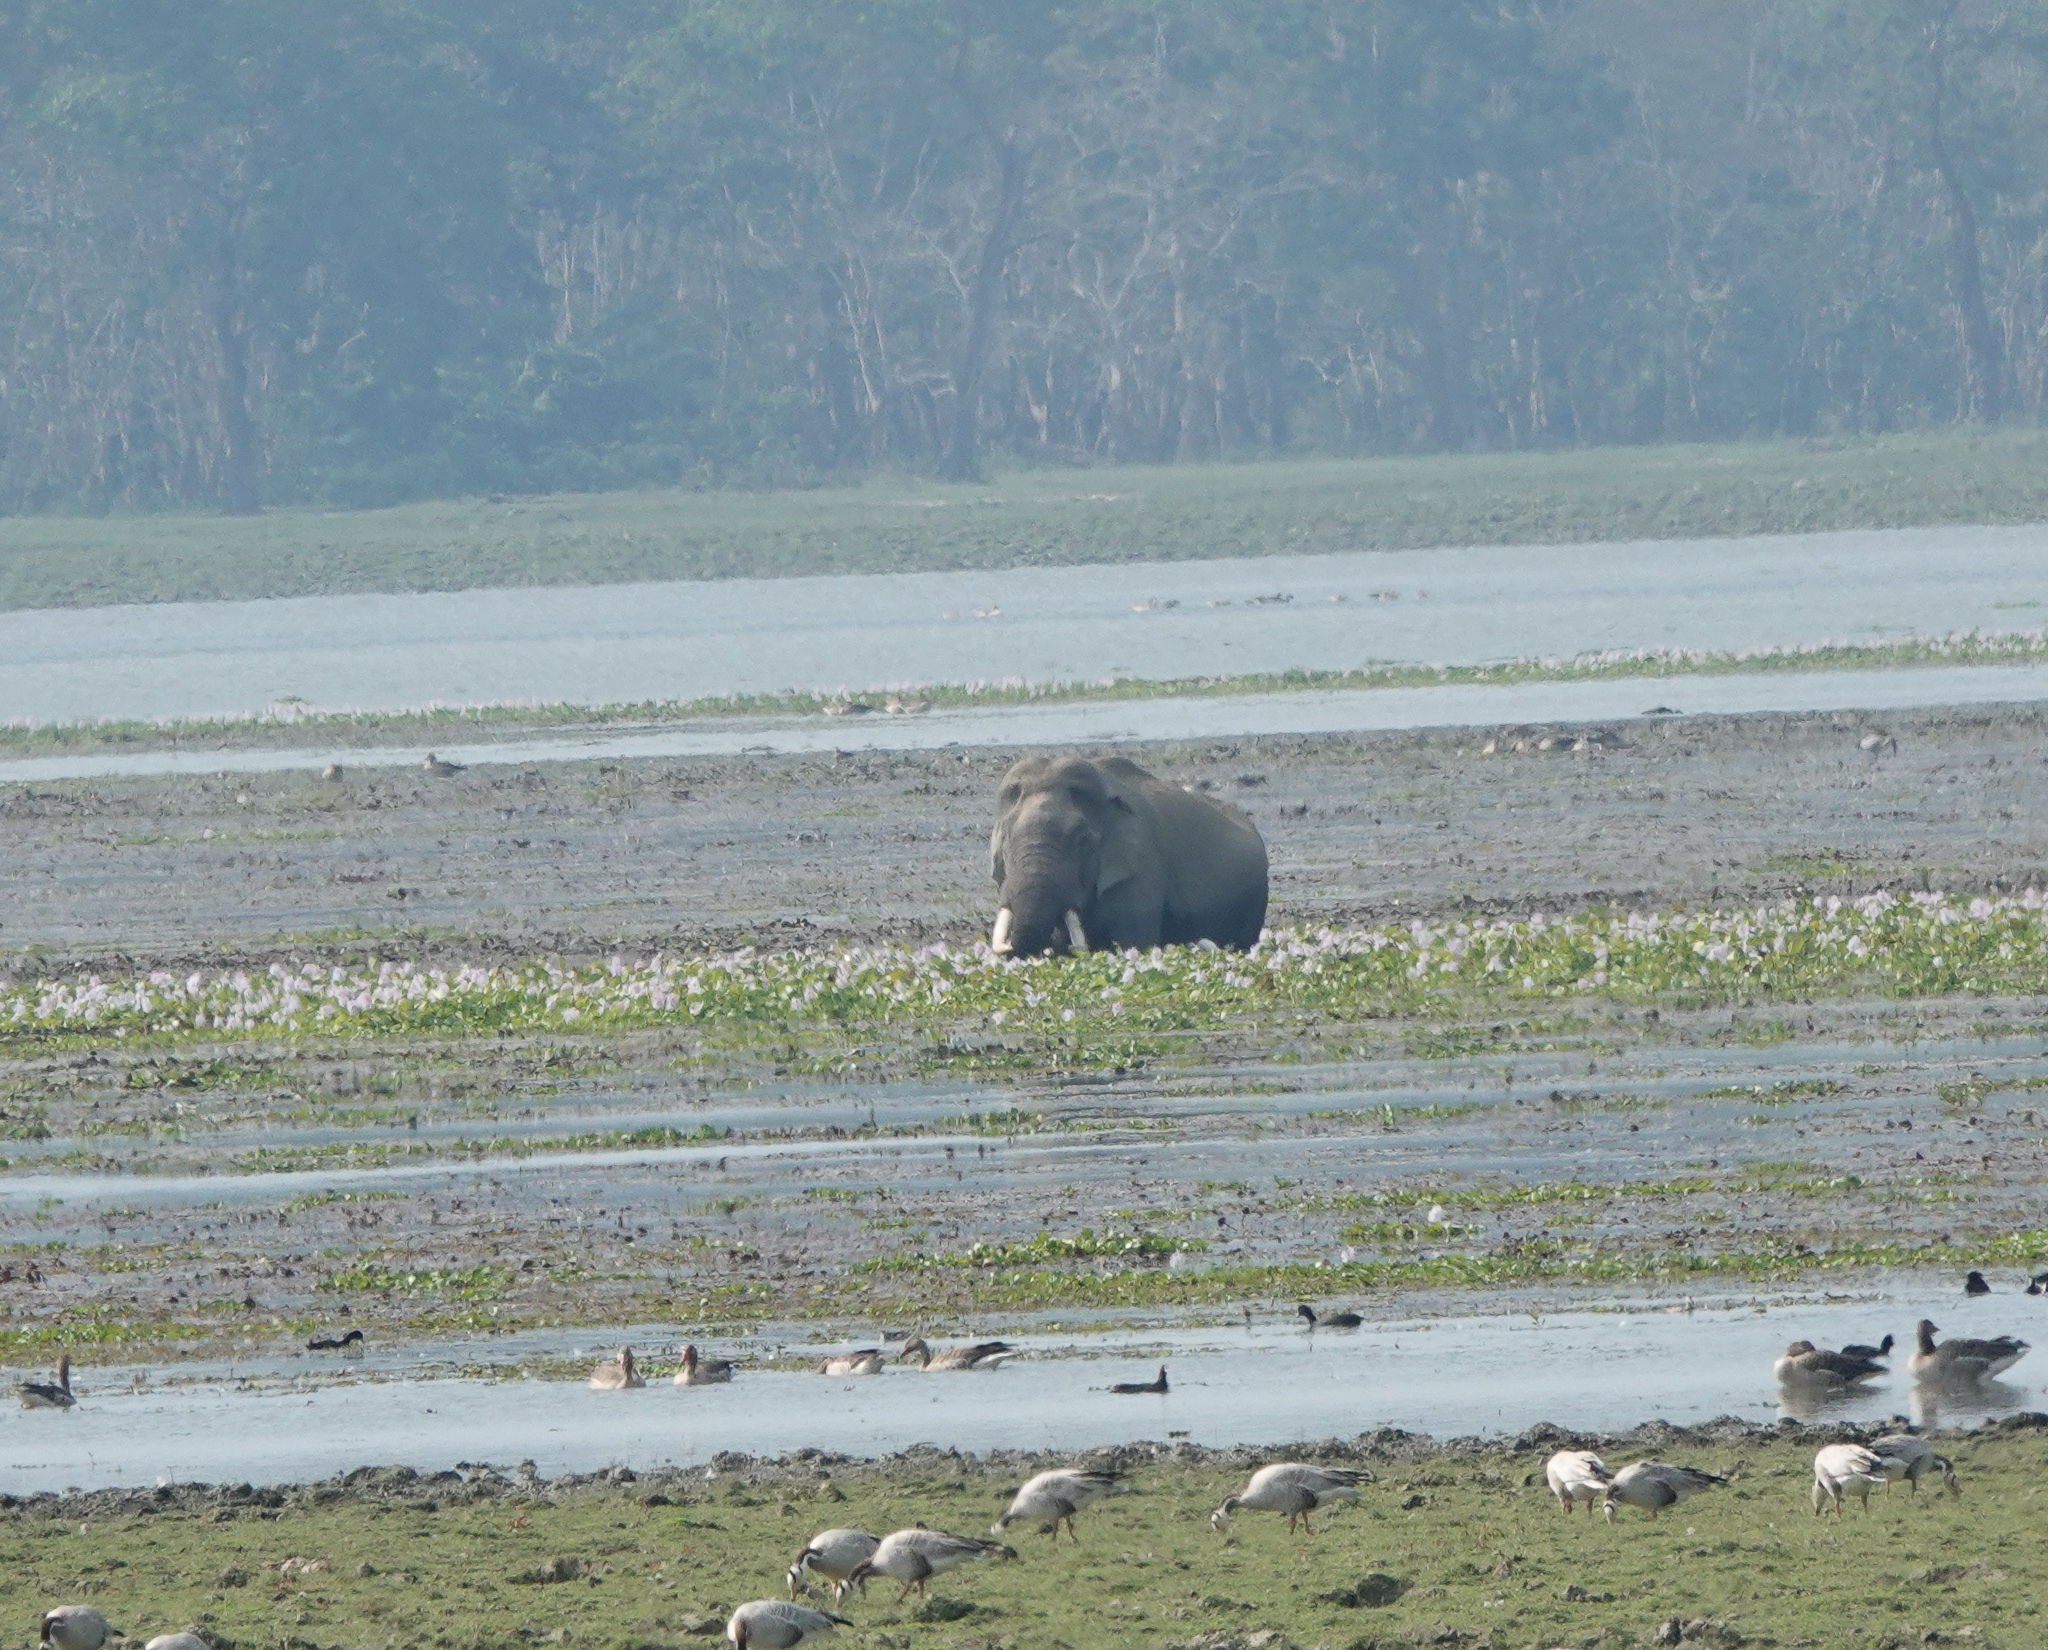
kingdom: Animalia
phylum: Chordata
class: Mammalia
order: Proboscidea
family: Elephantidae
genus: Elephas
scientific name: Elephas maximus
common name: Asian elephant
